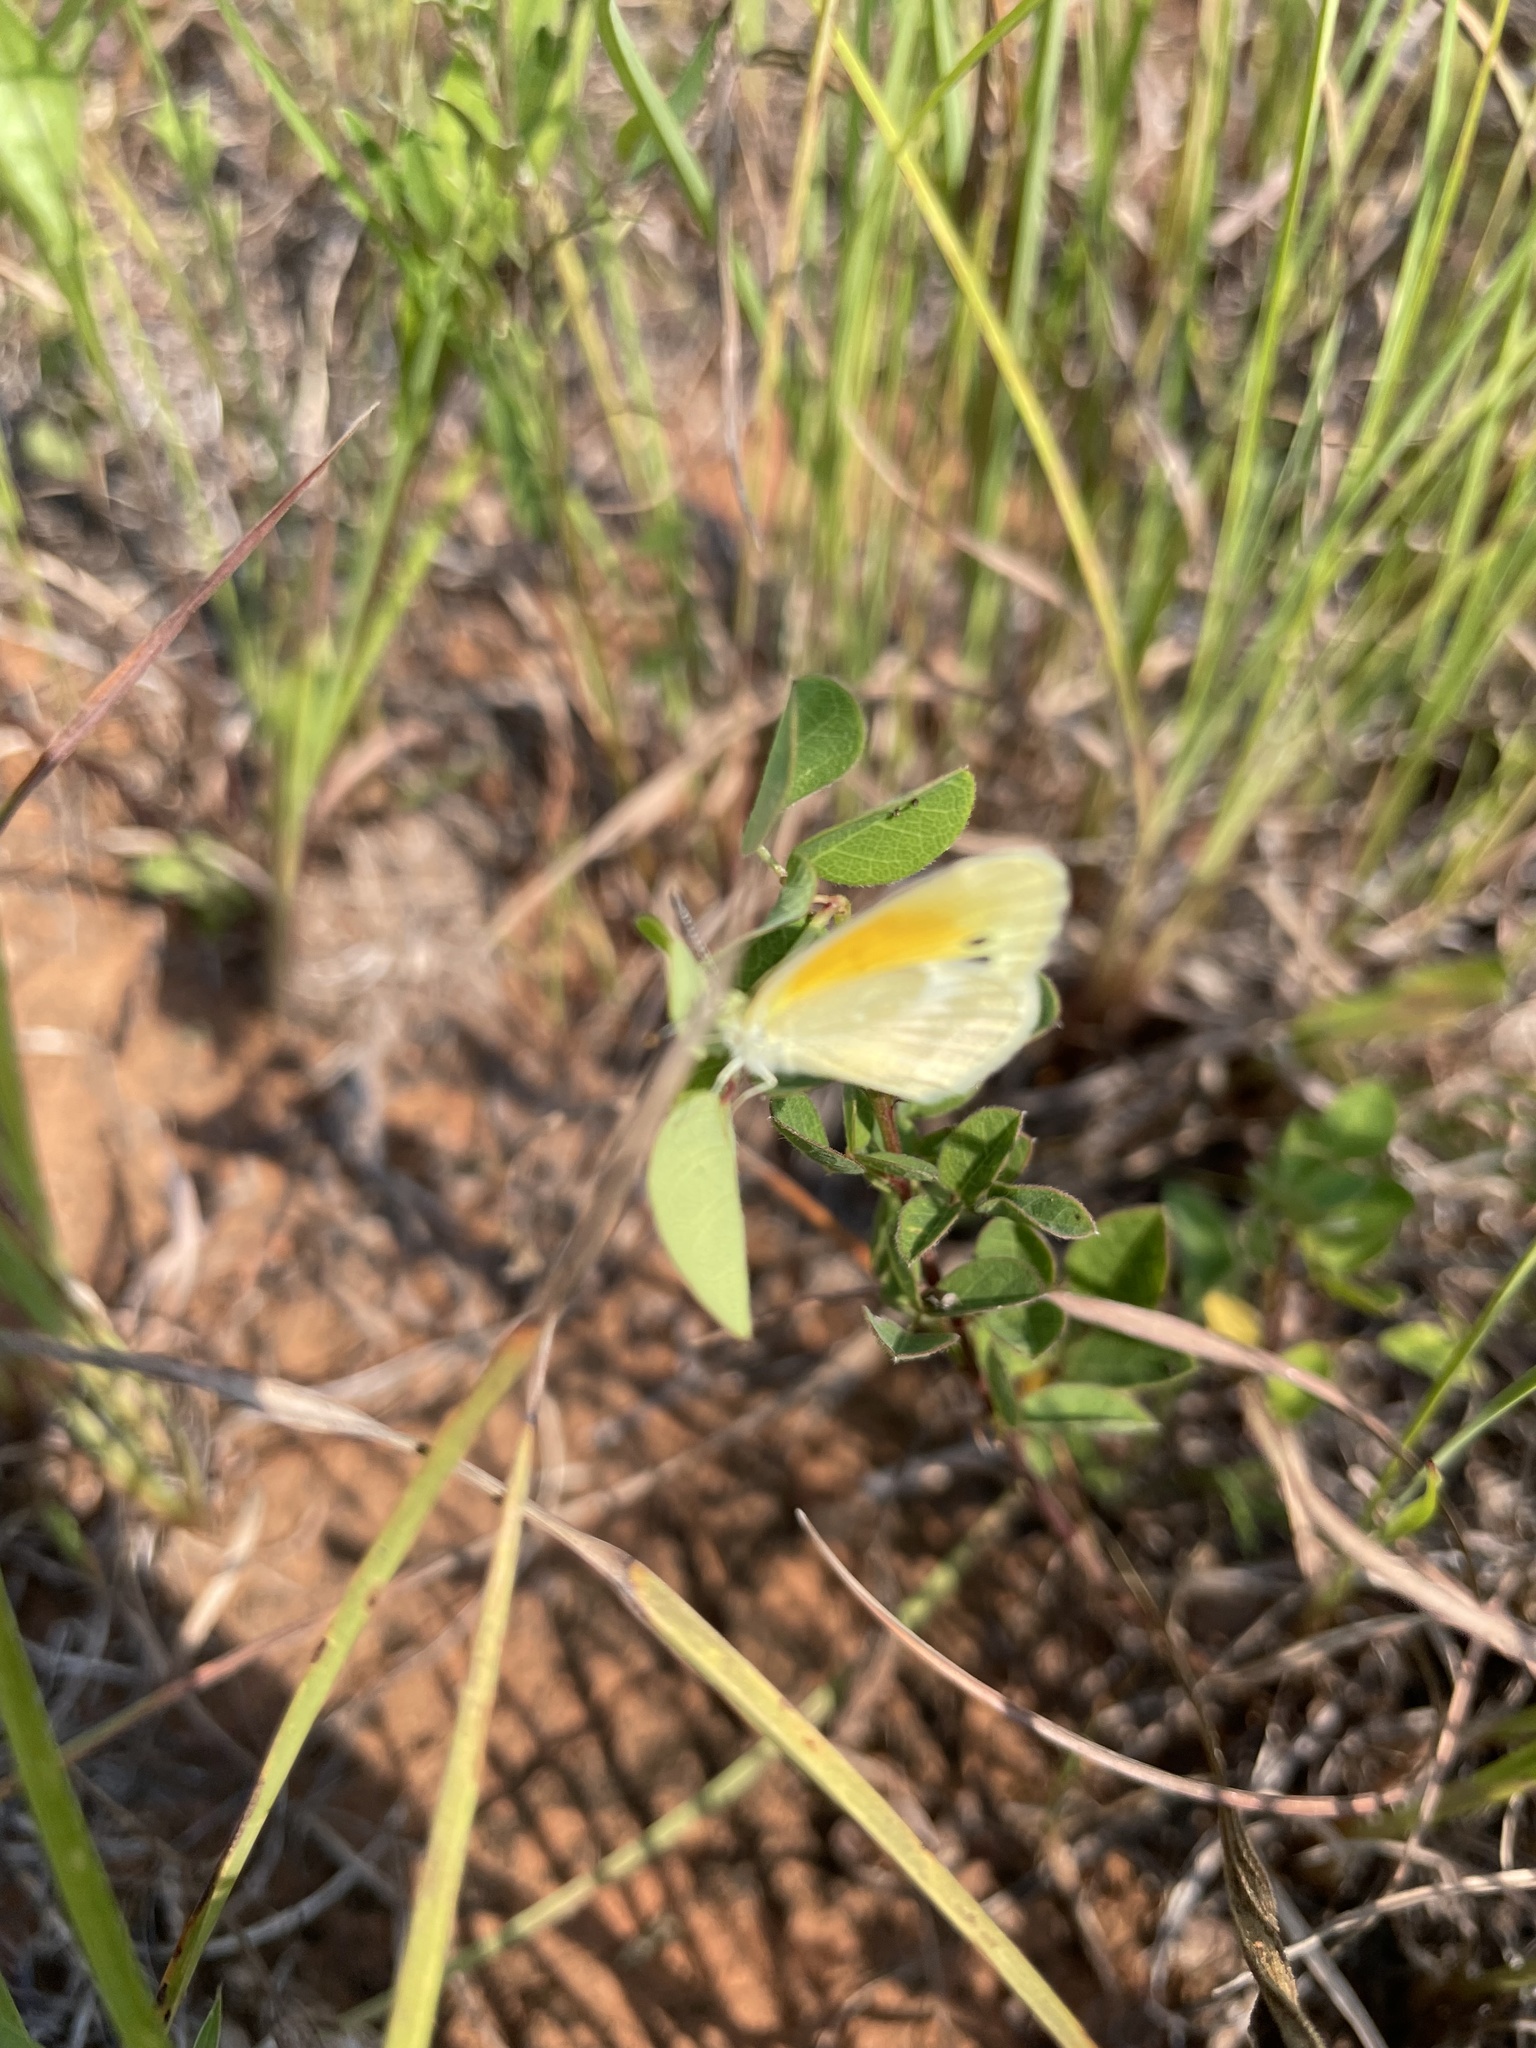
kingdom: Animalia
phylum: Arthropoda
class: Insecta
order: Lepidoptera
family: Pieridae
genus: Nathalis
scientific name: Nathalis iole
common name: Dainty sulphur
